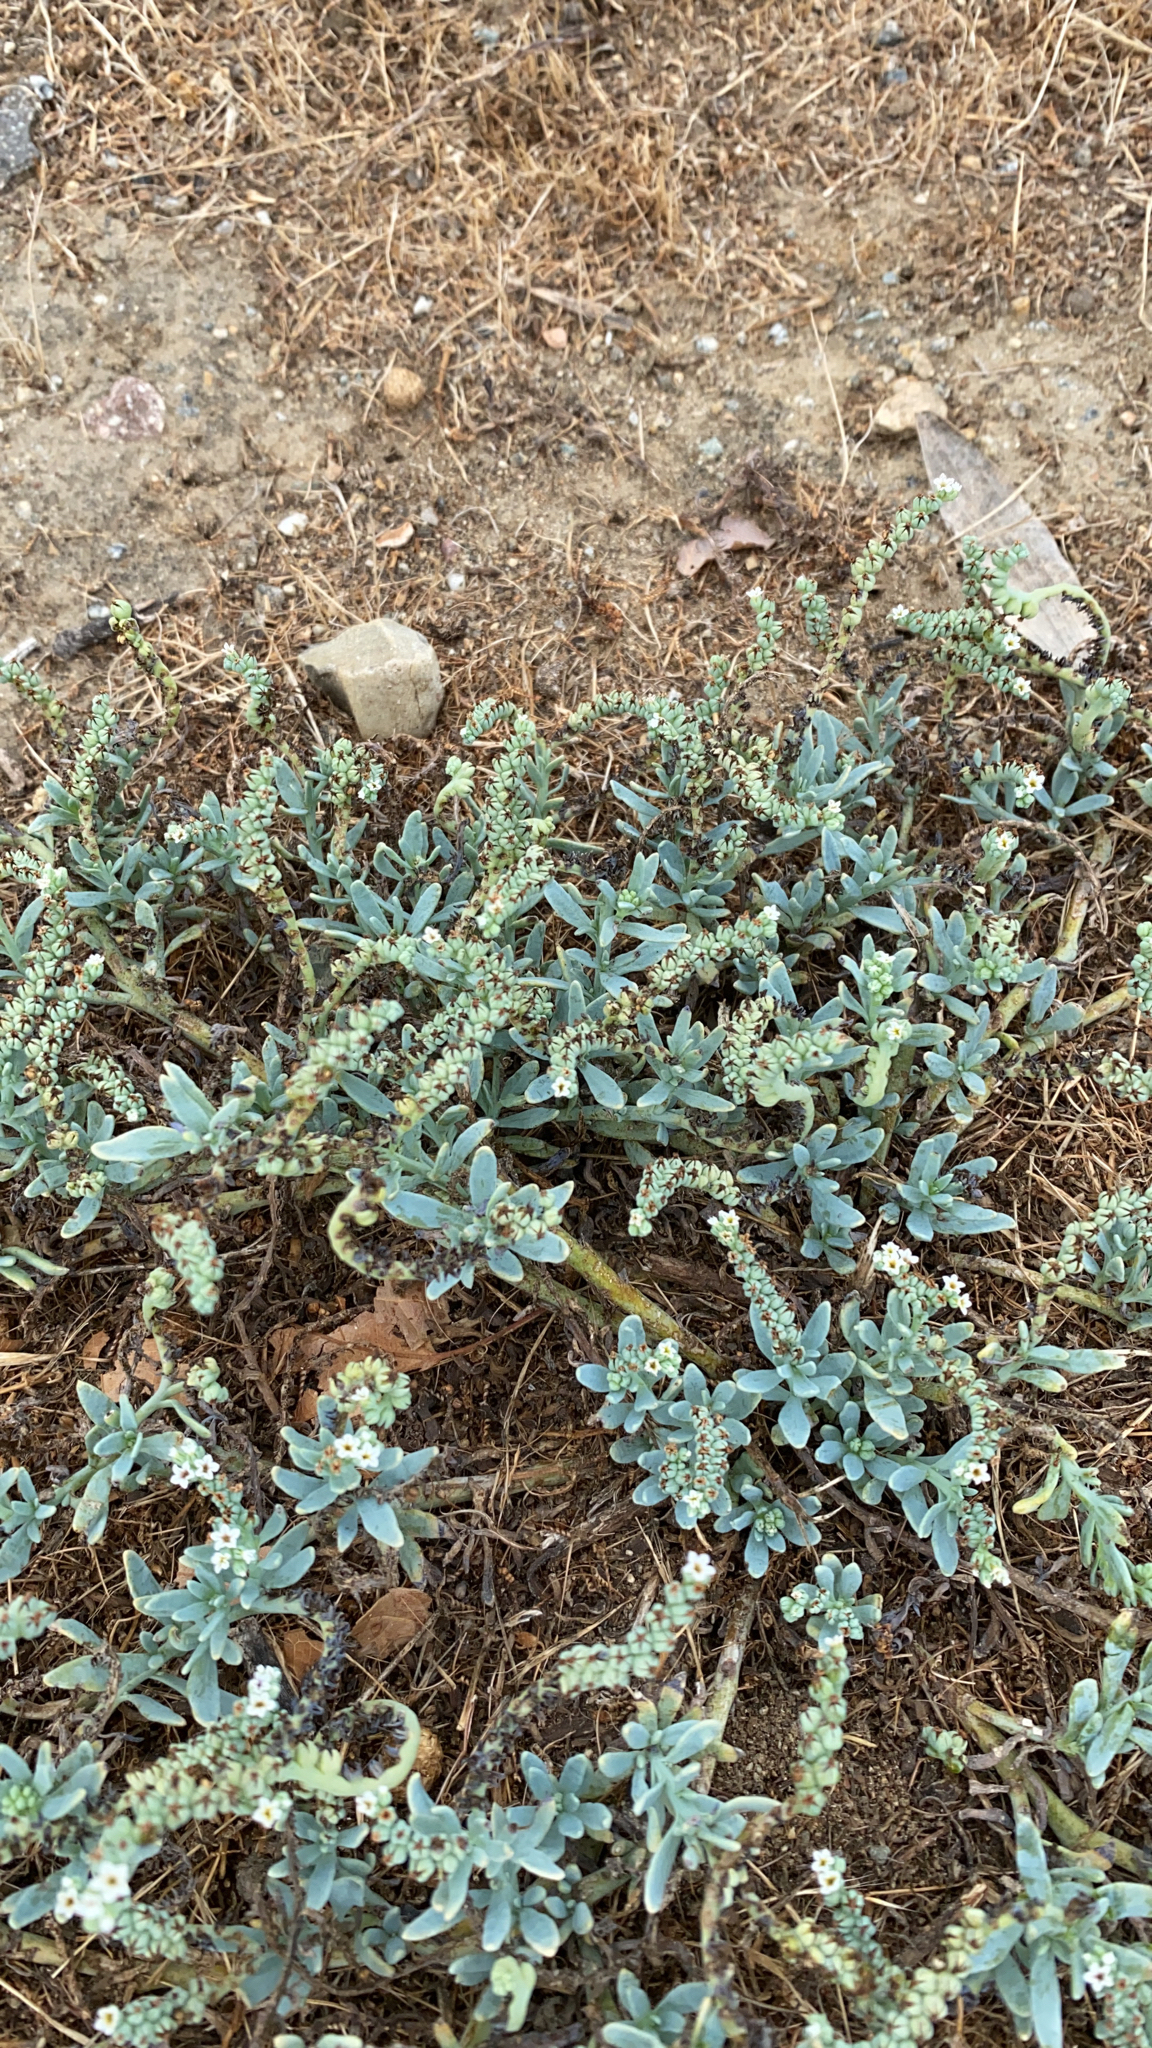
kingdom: Plantae
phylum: Tracheophyta
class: Magnoliopsida
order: Boraginales
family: Heliotropiaceae
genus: Heliotropium
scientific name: Heliotropium curassavicum
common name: Seaside heliotrope
